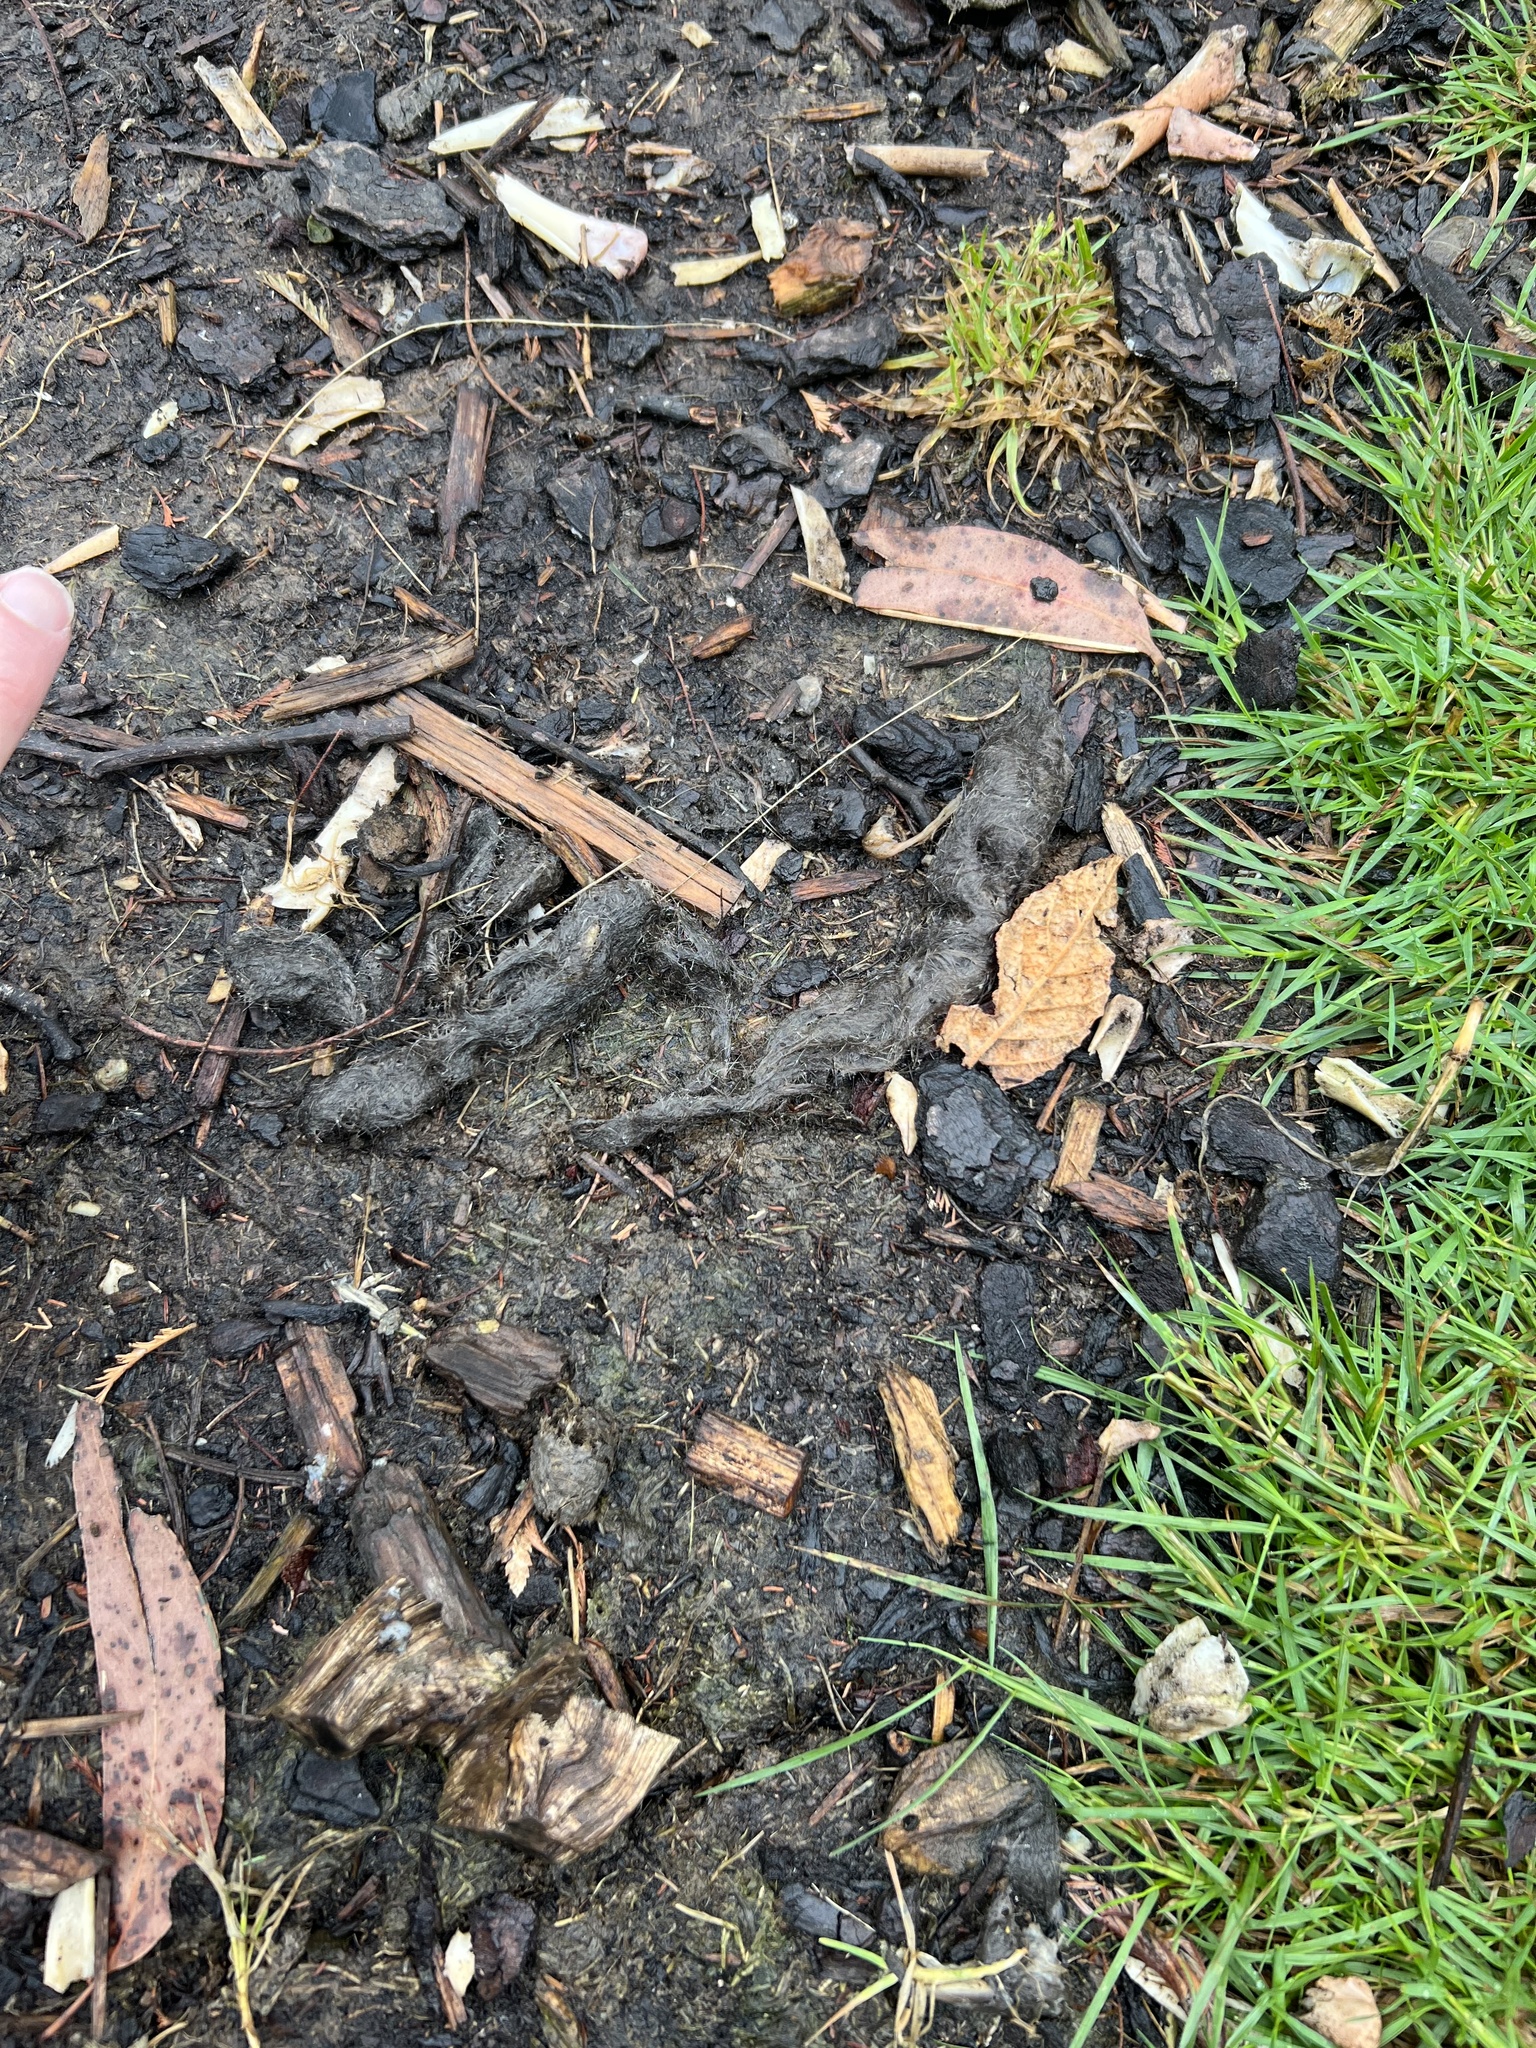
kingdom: Animalia
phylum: Chordata
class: Mammalia
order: Dasyuromorphia
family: Dasyuridae
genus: Sarcophilus
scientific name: Sarcophilus harrisii
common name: Tasmanian devil
